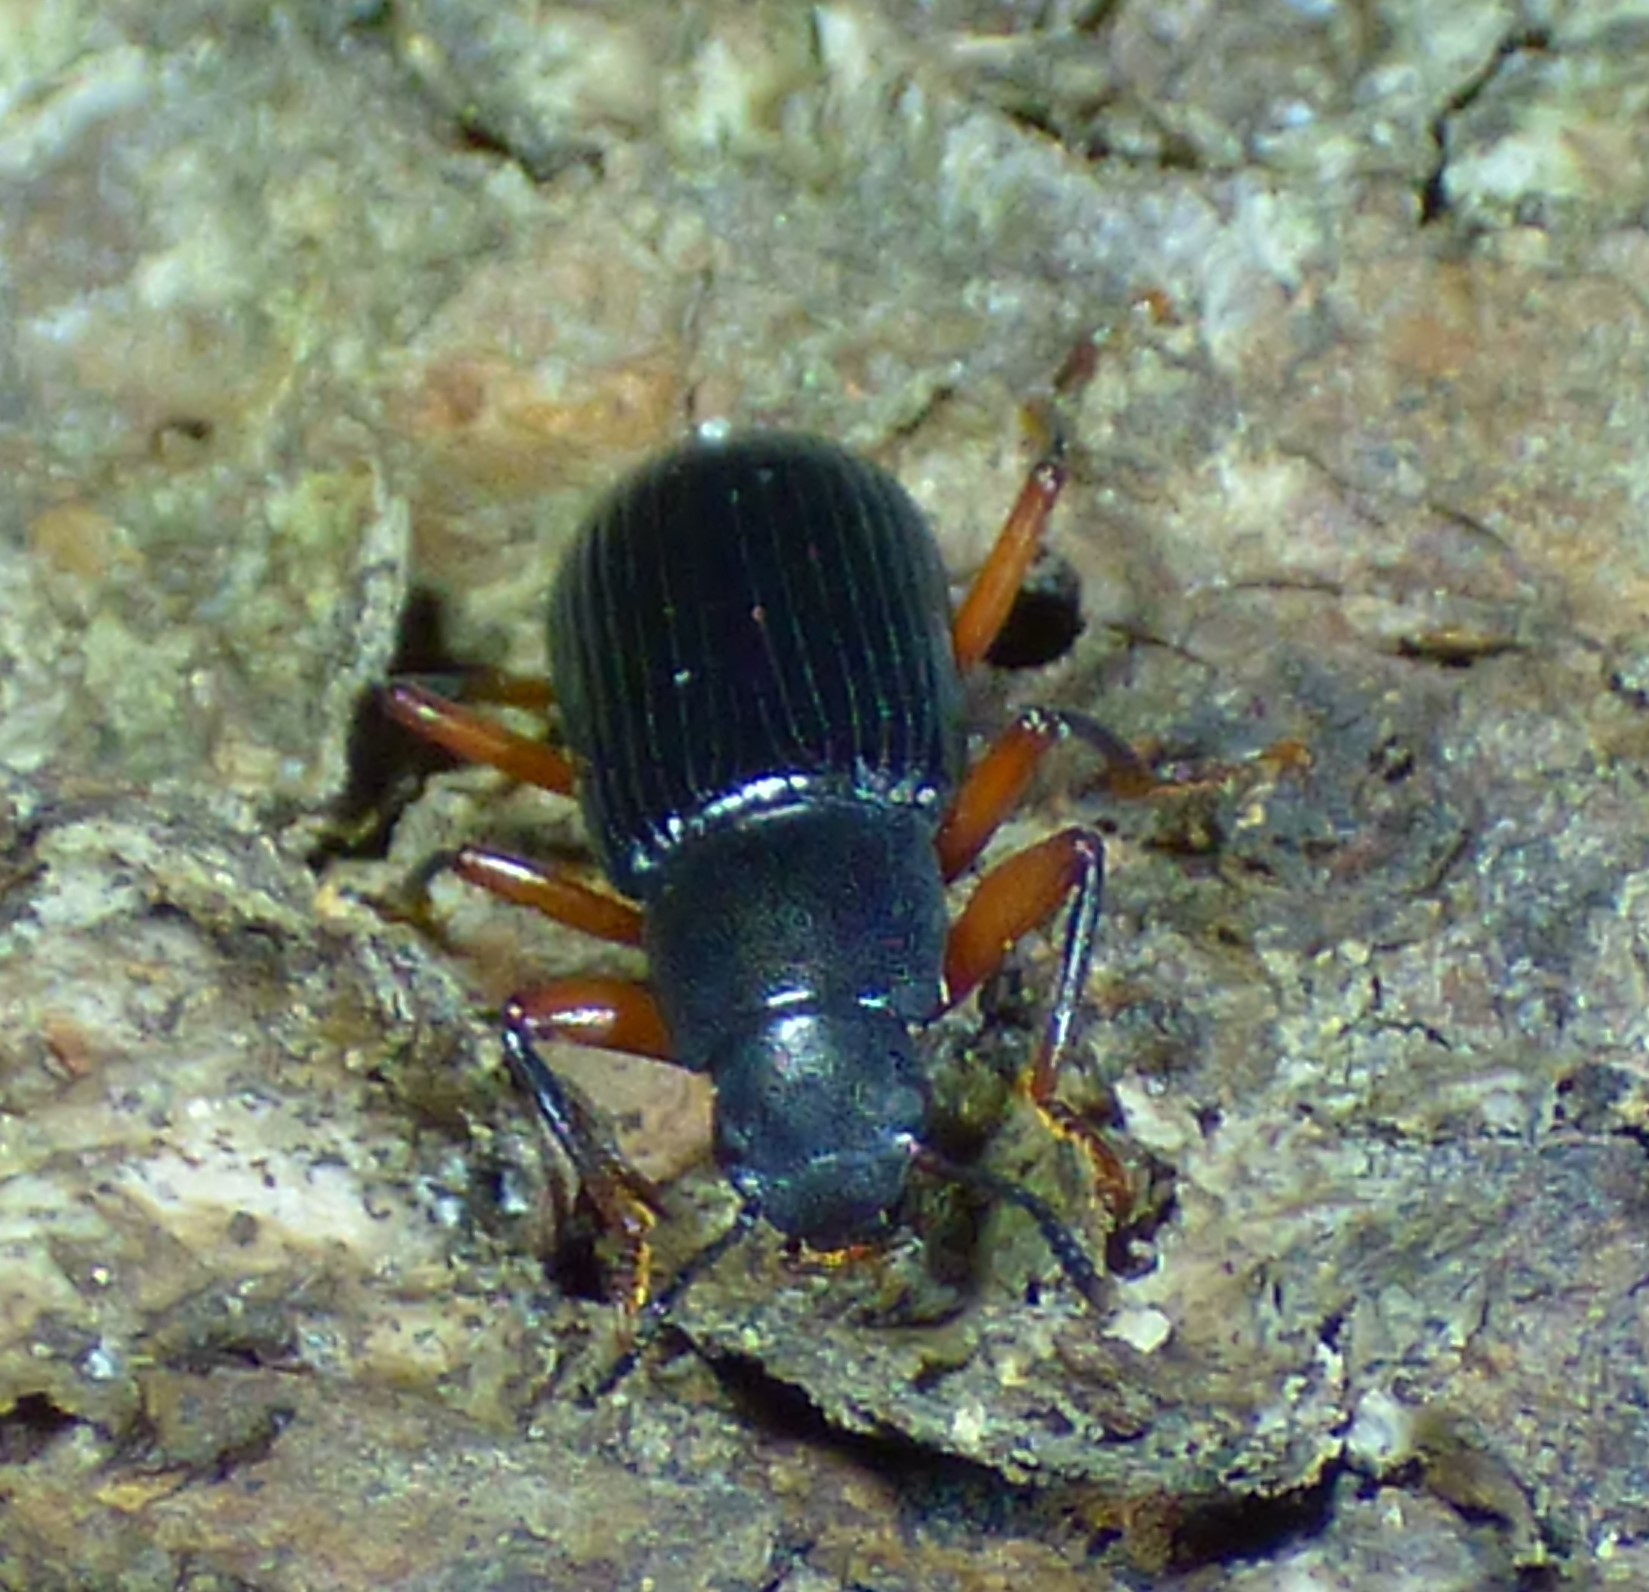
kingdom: Animalia
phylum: Arthropoda
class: Insecta
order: Coleoptera
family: Tenebrionidae
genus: Xylopinus
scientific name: Xylopinus saperdoides
